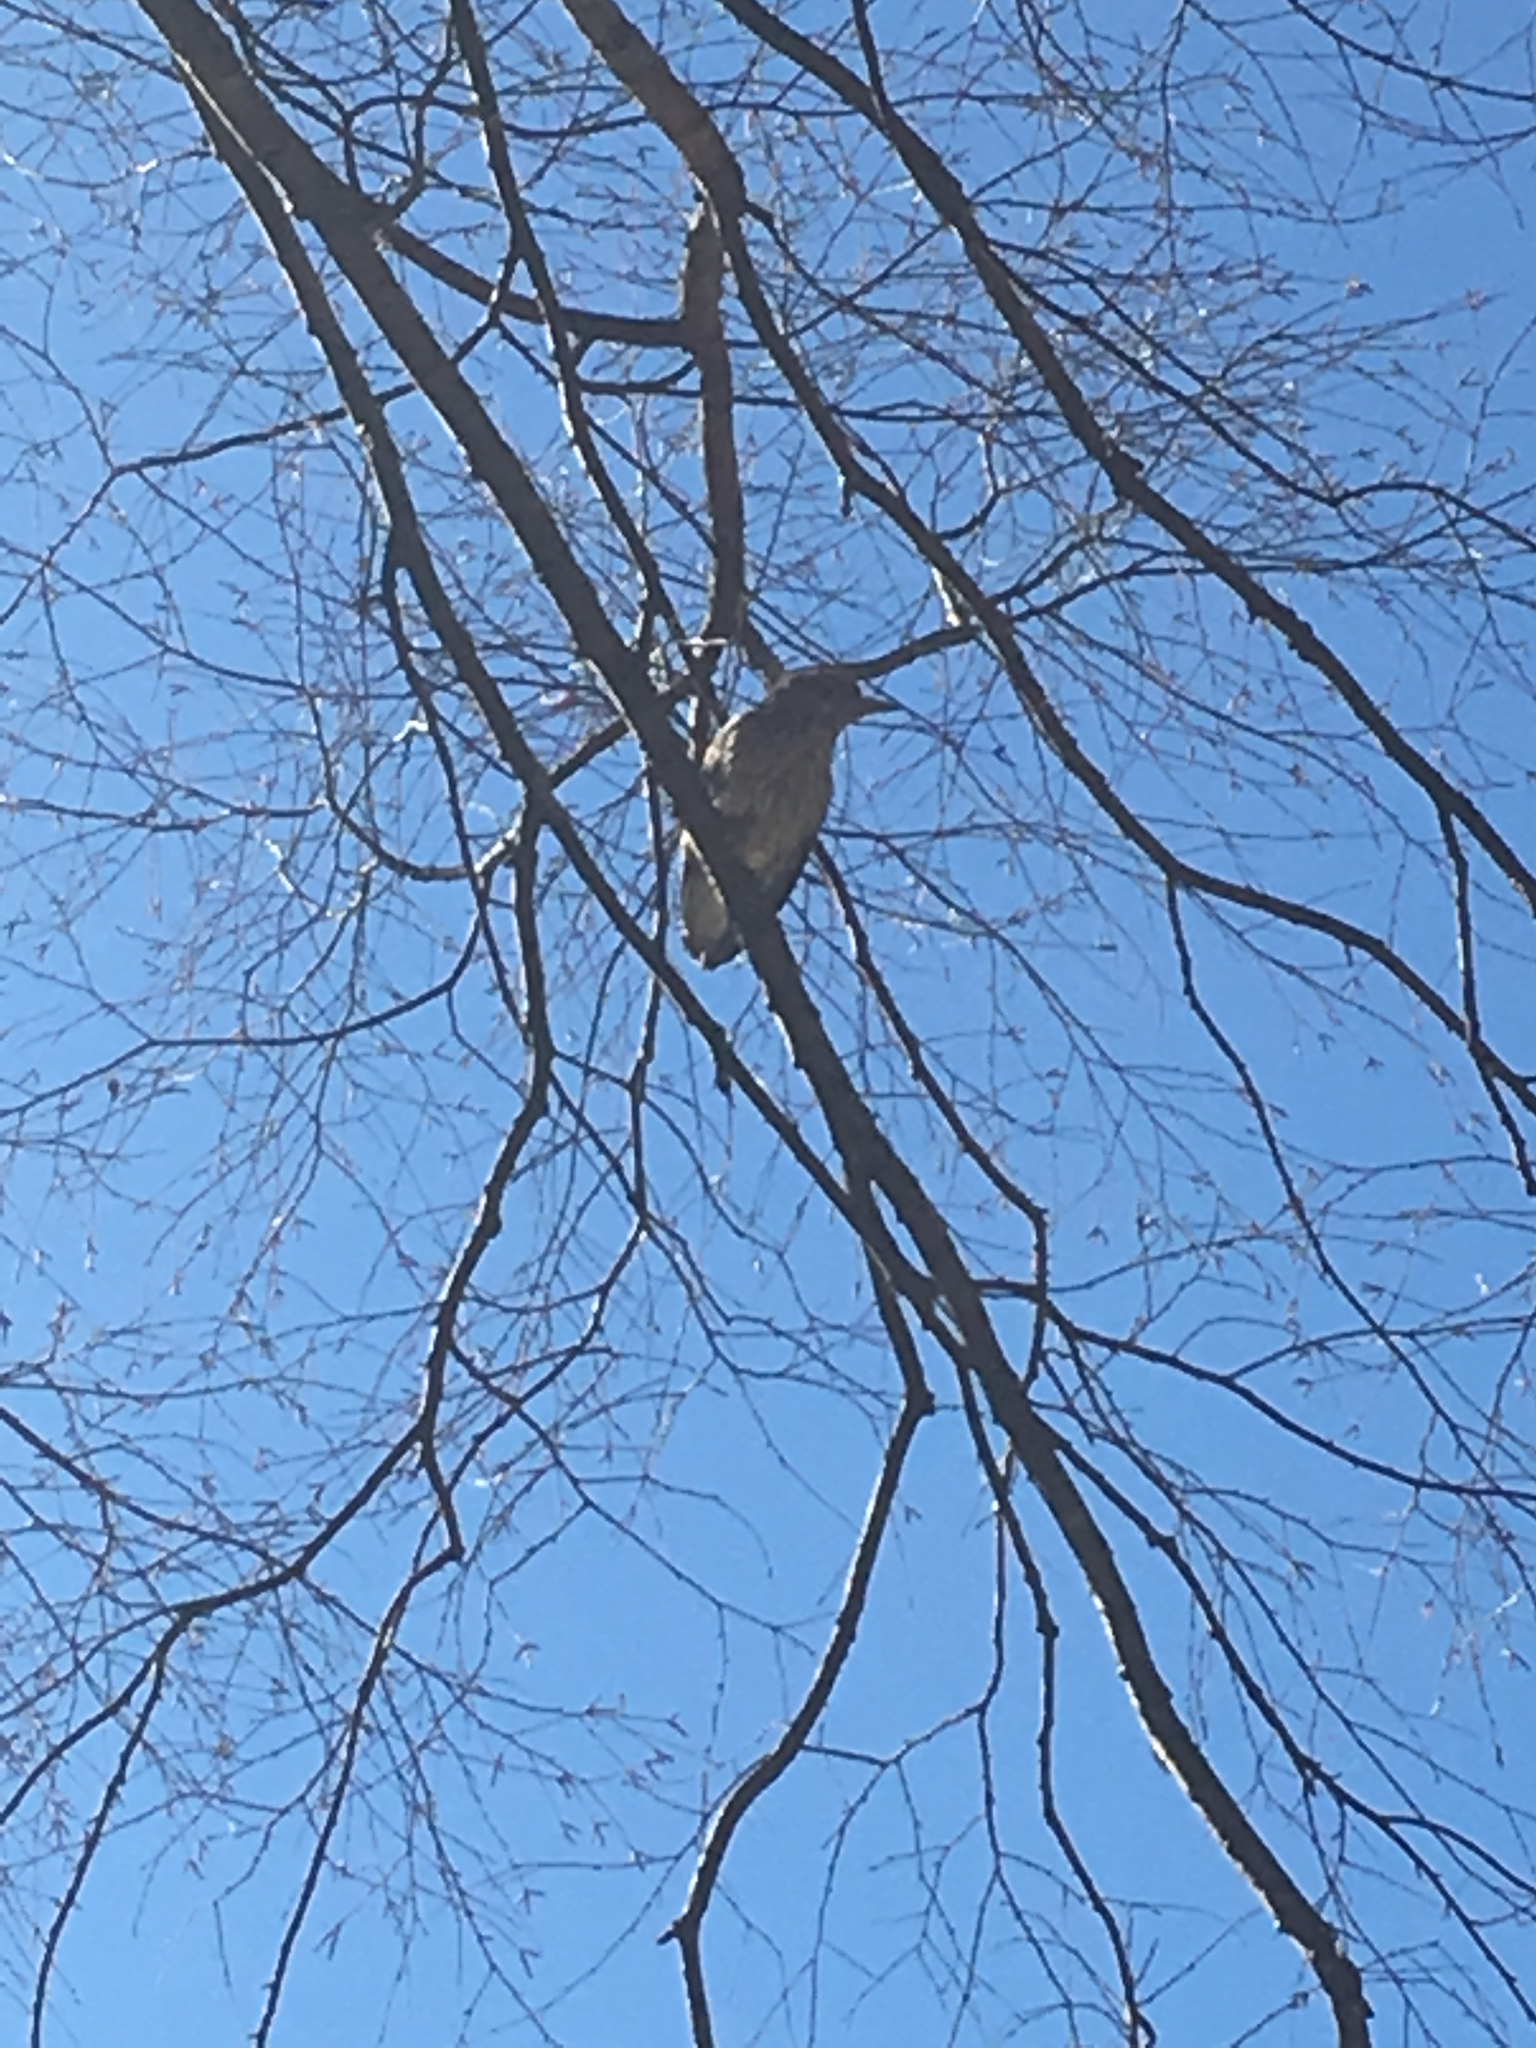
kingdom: Animalia
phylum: Chordata
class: Aves
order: Pelecaniformes
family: Ardeidae
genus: Nycticorax
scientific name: Nycticorax nycticorax
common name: Black-crowned night heron
